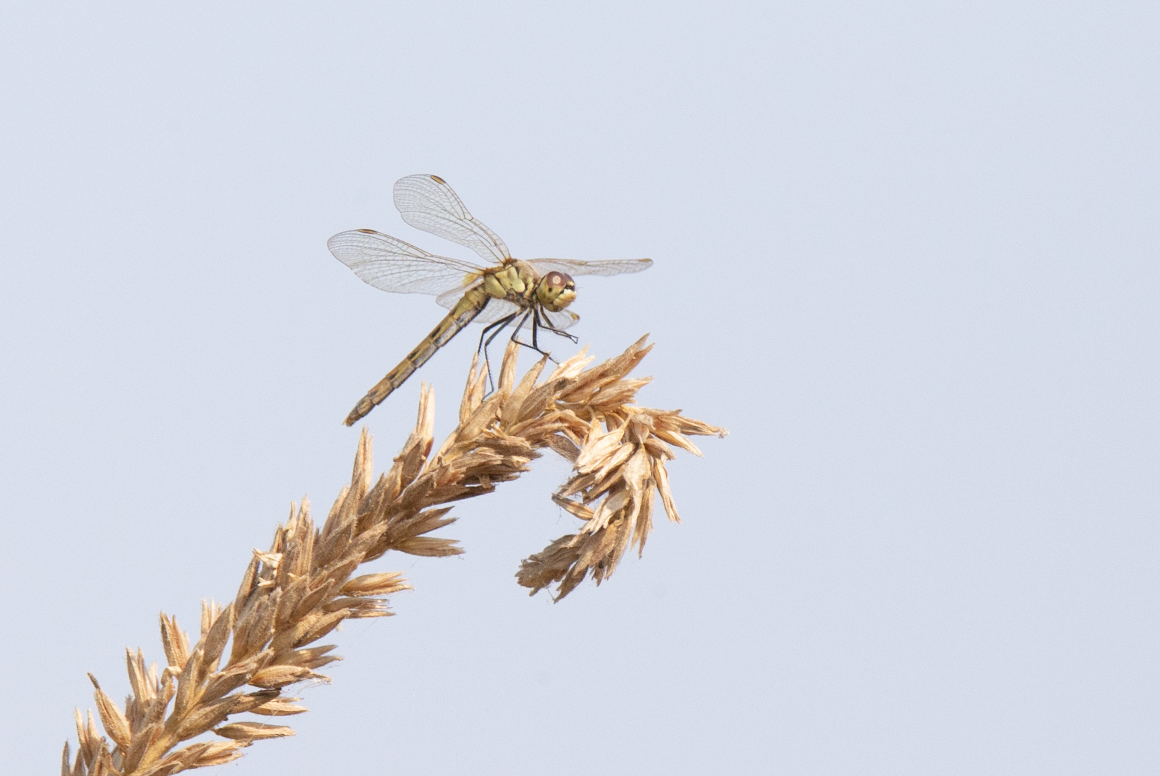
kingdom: Animalia
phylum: Arthropoda
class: Insecta
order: Odonata
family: Libellulidae
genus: Sympetrum
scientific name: Sympetrum depressiusculum
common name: Spotted darter
